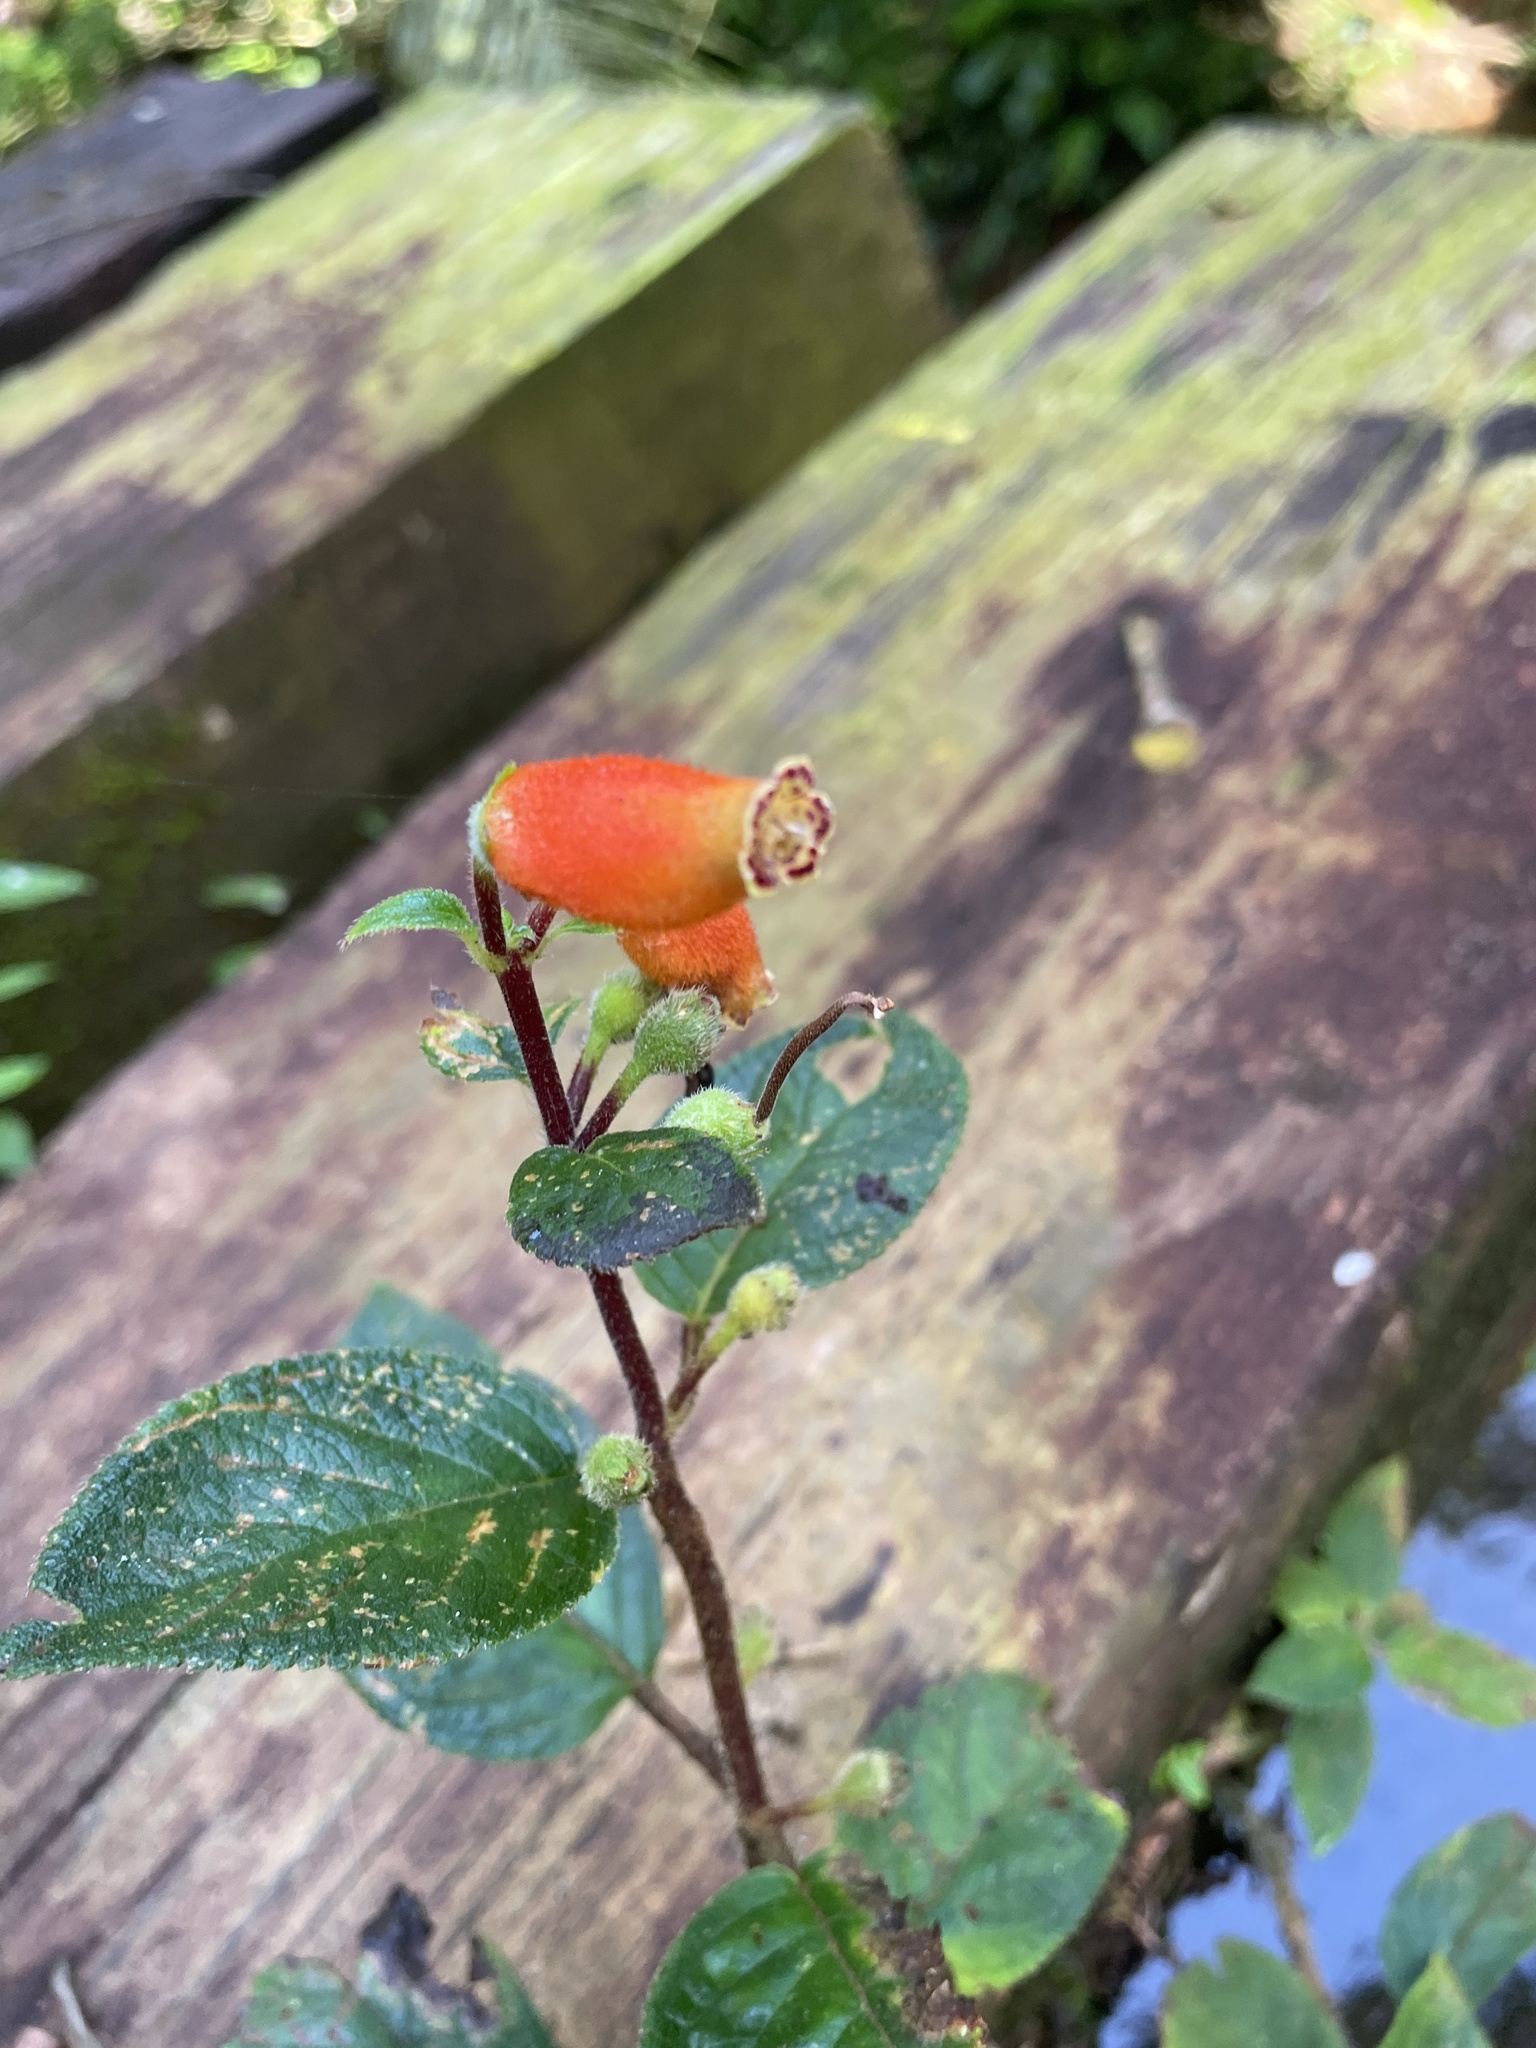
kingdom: Plantae
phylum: Tracheophyta
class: Magnoliopsida
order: Lamiales
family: Gesneriaceae
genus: Kohleria
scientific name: Kohleria tubiflora
